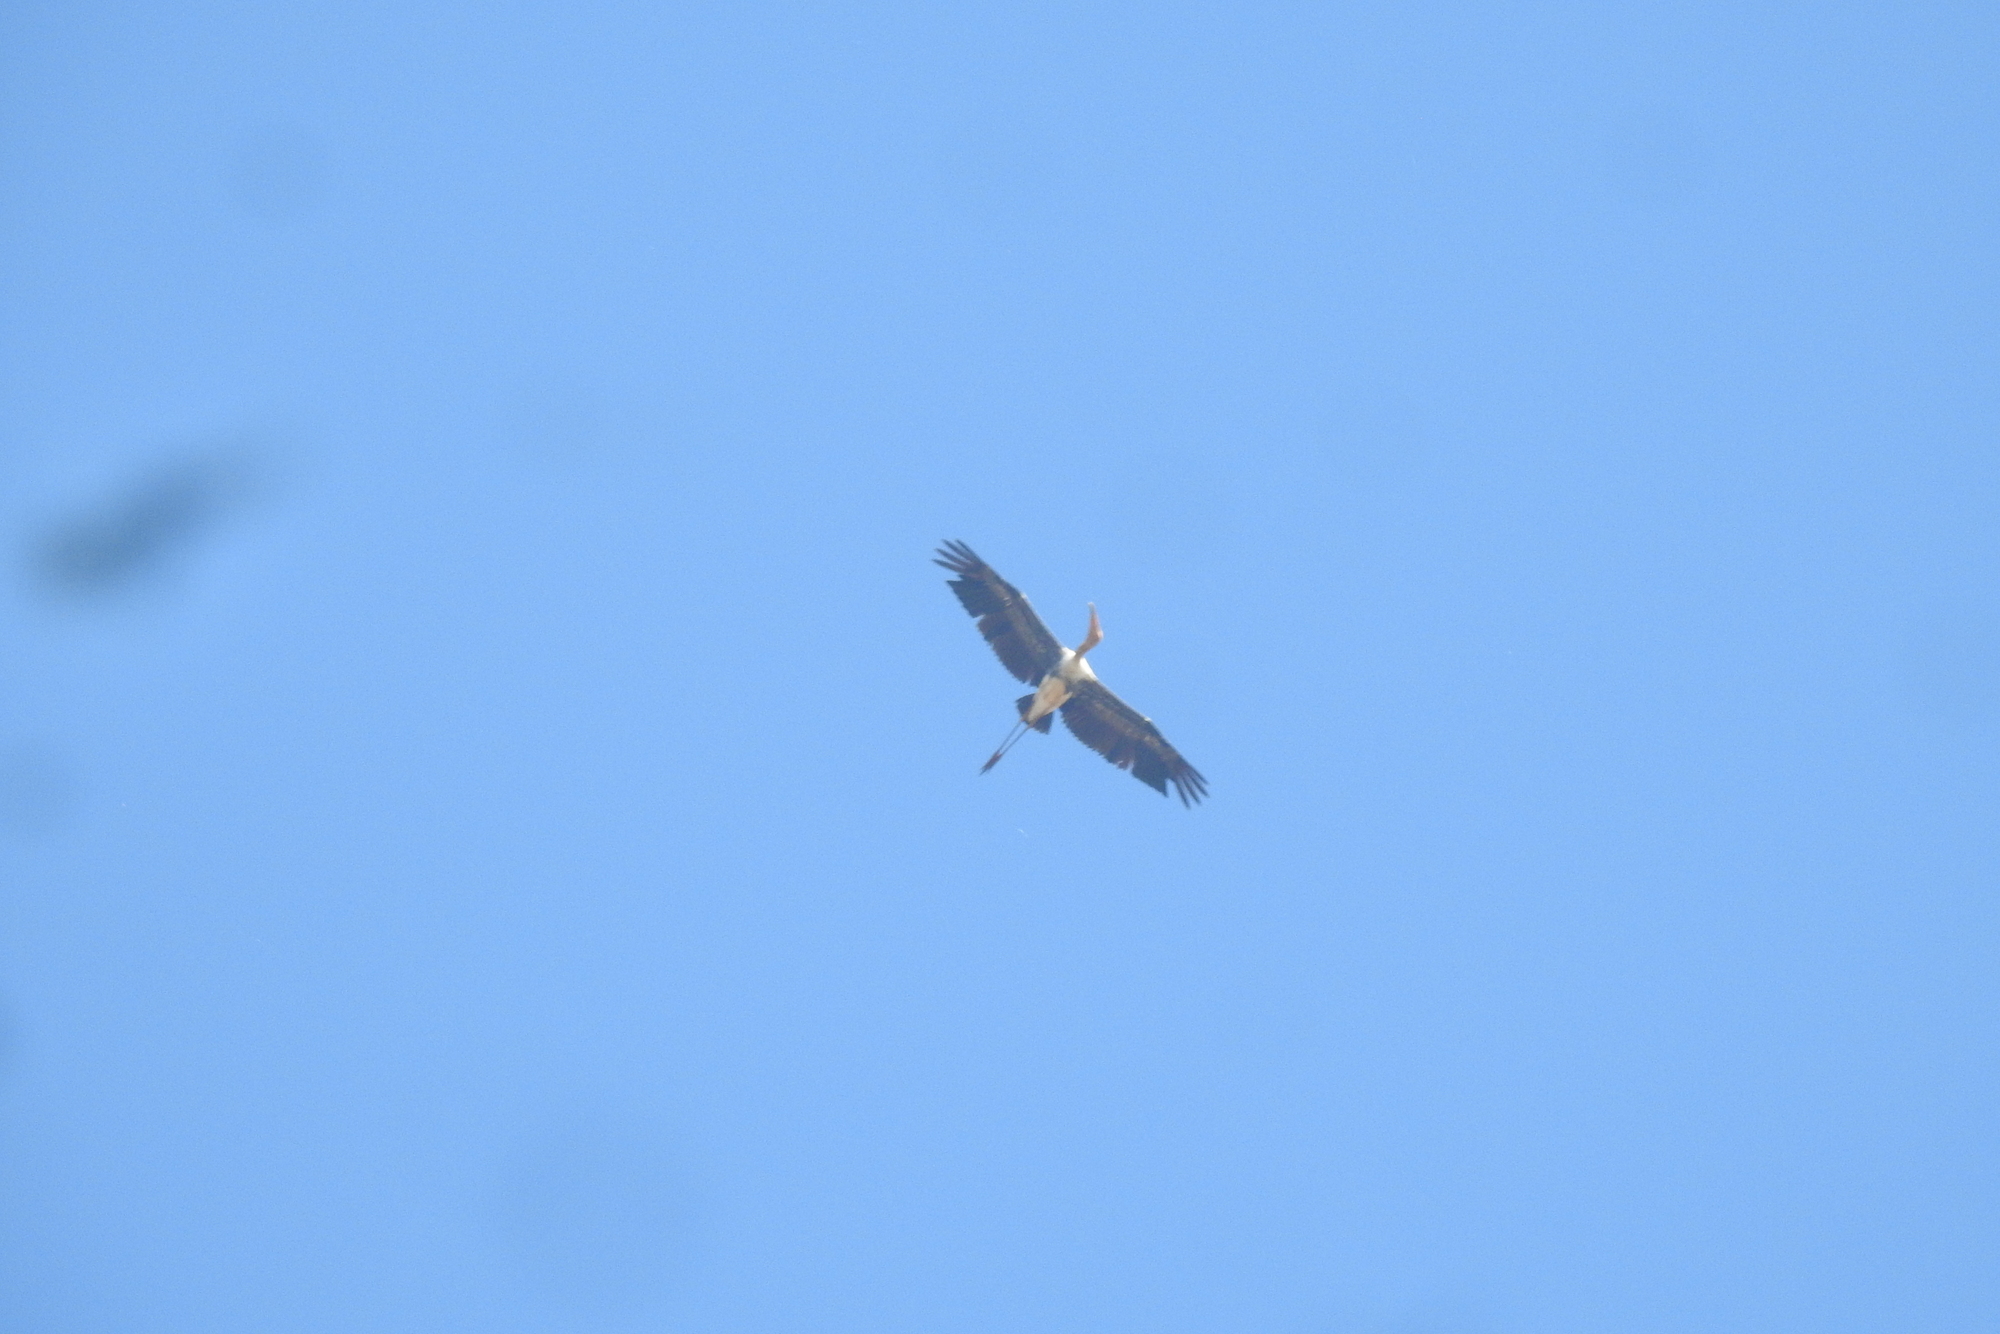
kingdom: Animalia
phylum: Chordata
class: Aves
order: Ciconiiformes
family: Ciconiidae
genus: Mycteria
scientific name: Mycteria leucocephala
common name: Painted stork
